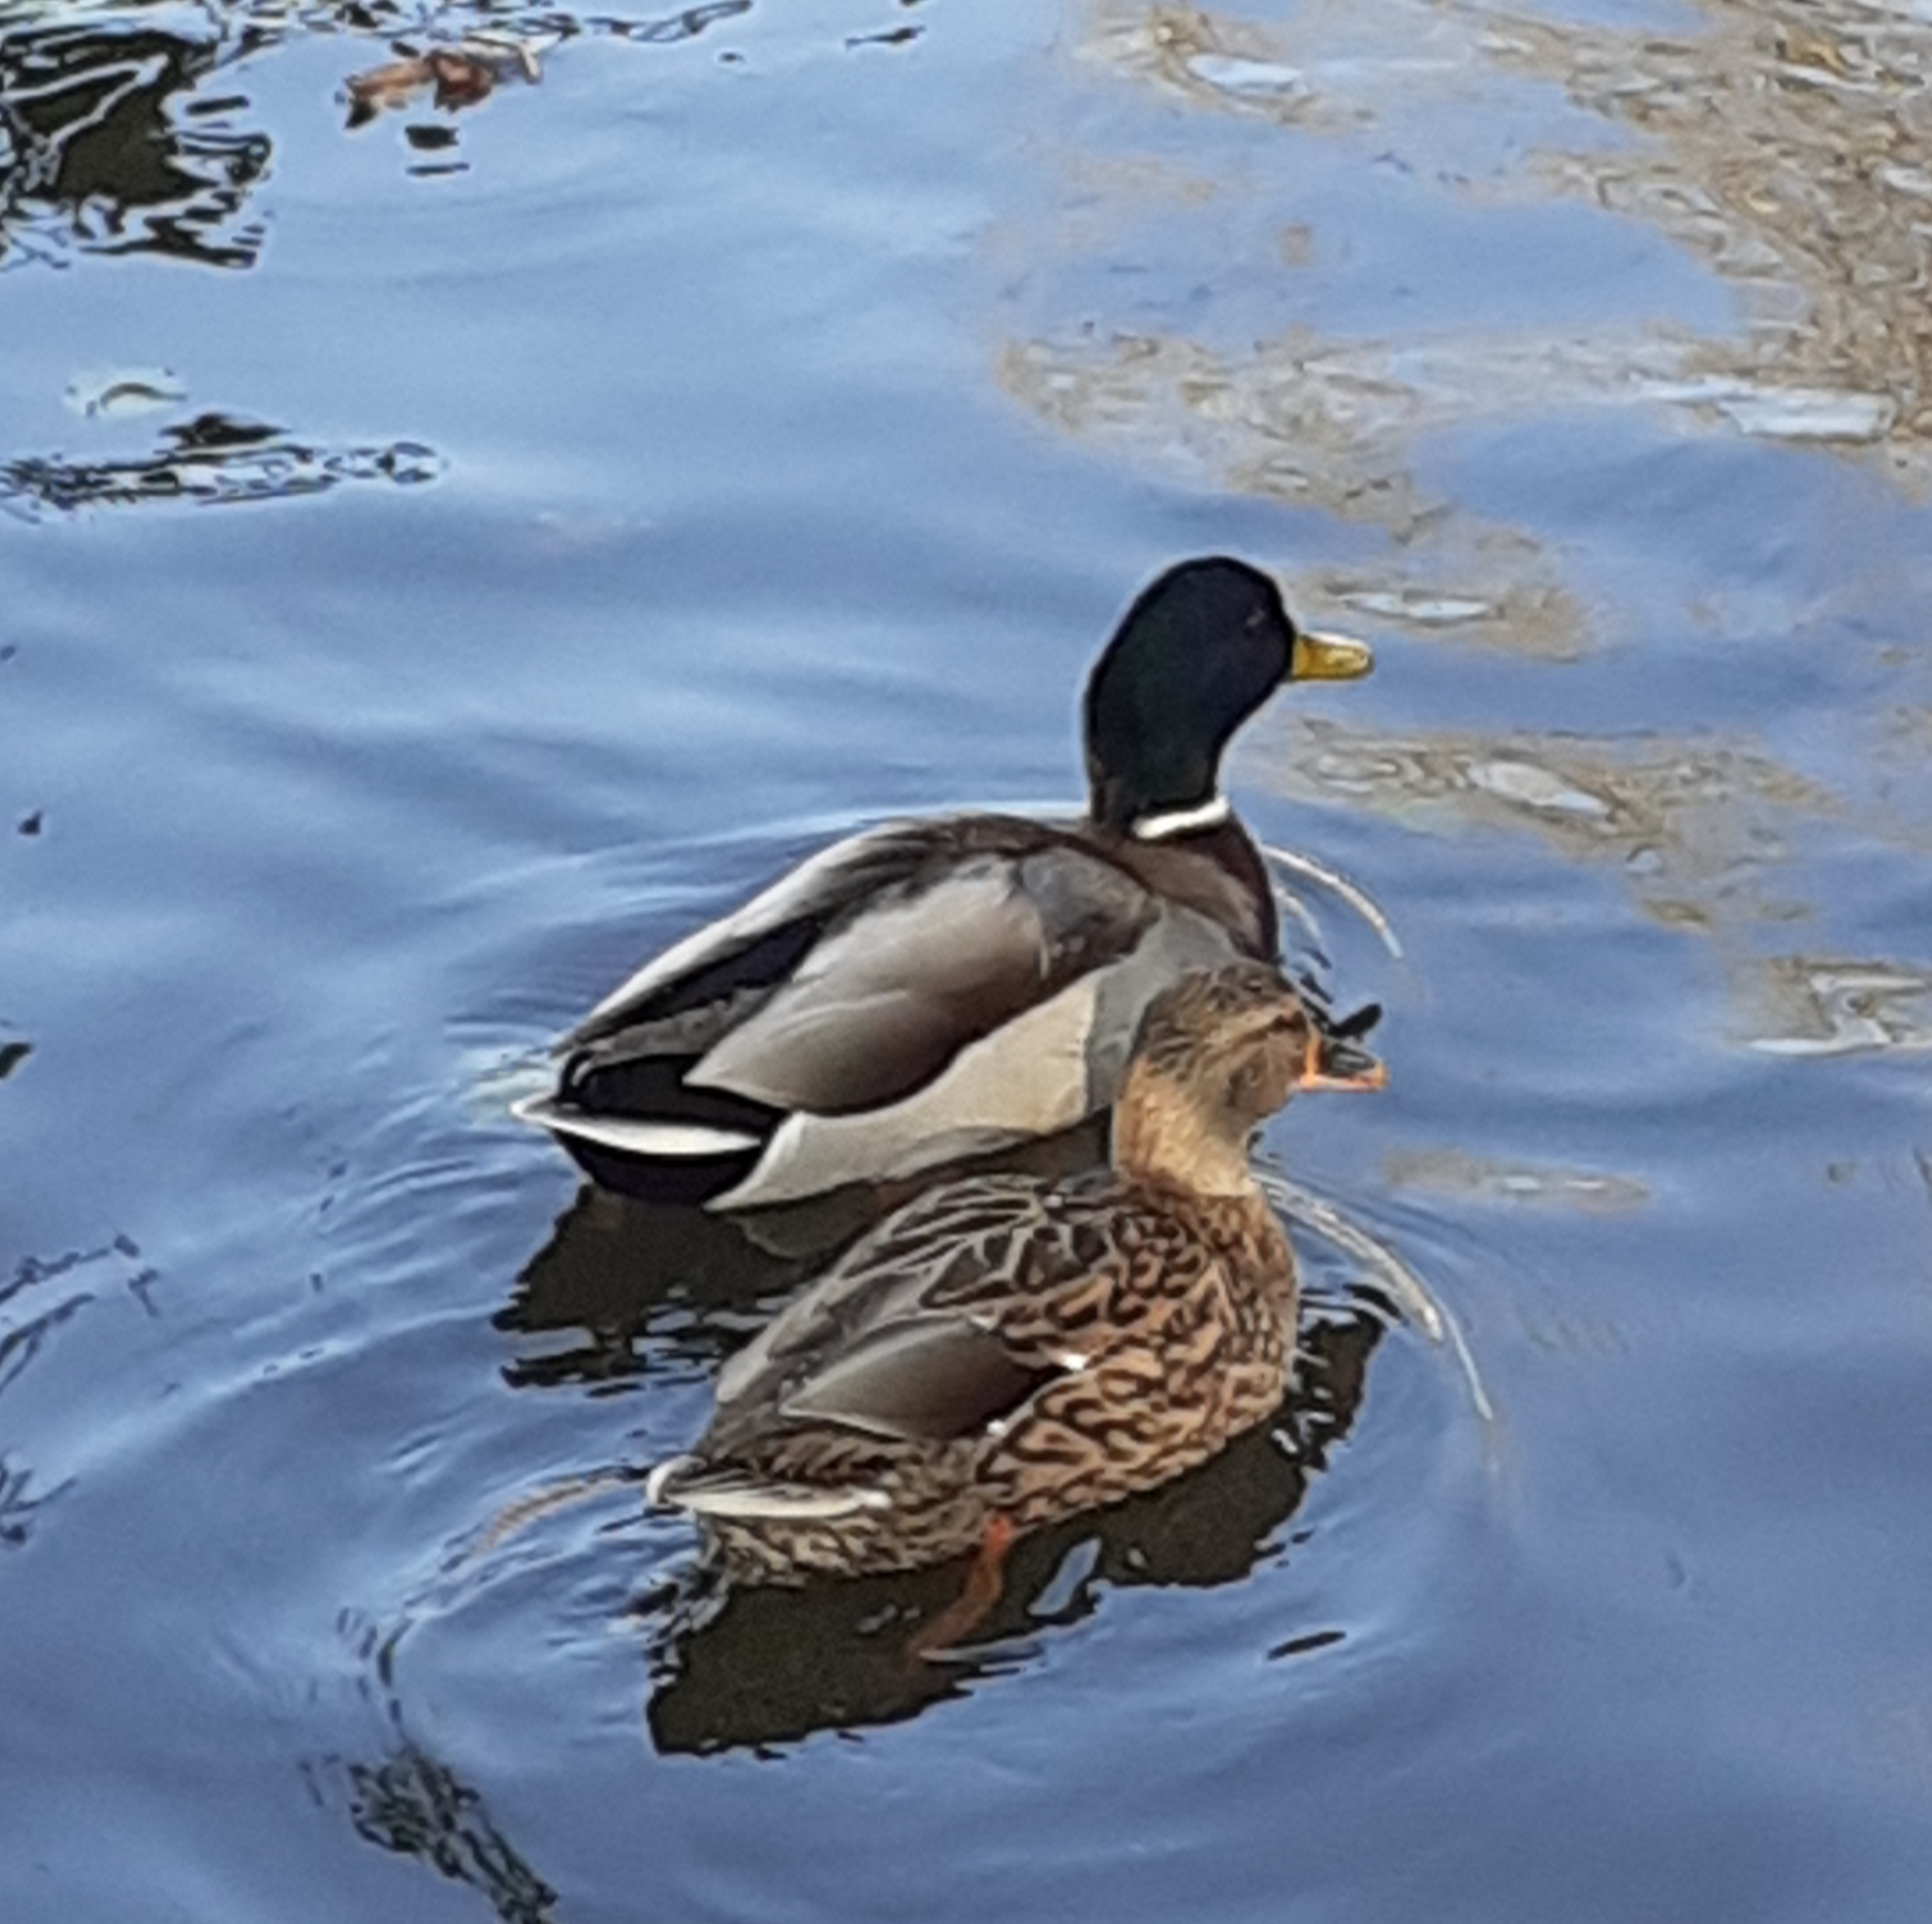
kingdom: Animalia
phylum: Chordata
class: Aves
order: Anseriformes
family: Anatidae
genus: Anas
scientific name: Anas platyrhynchos
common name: Mallard
